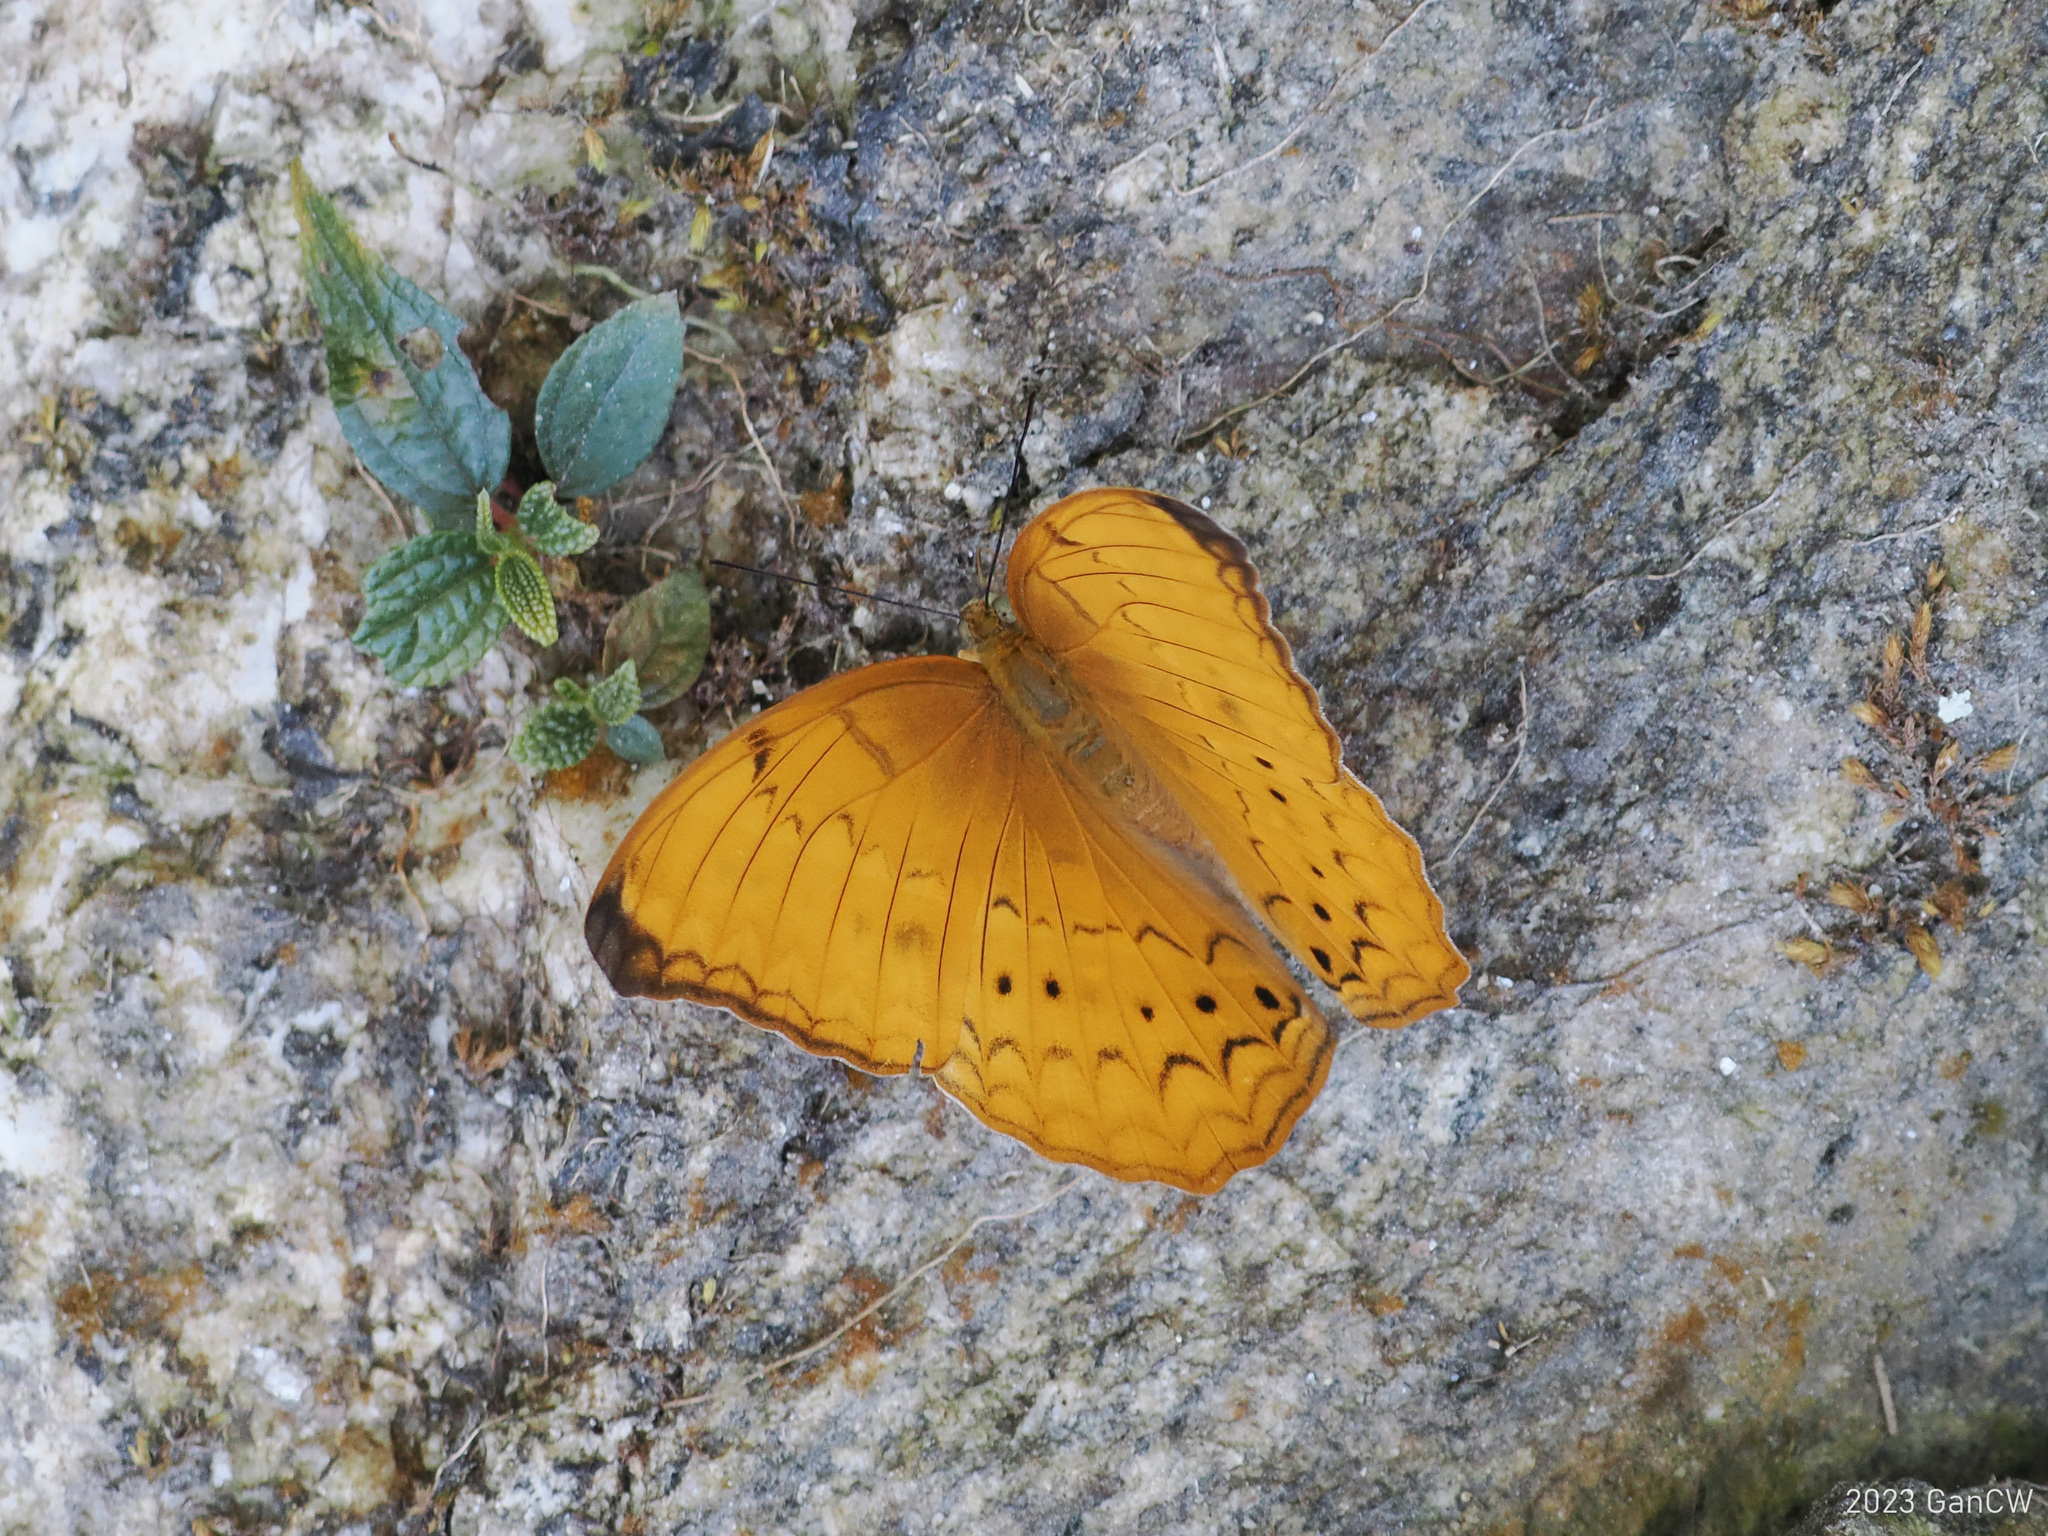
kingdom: Animalia
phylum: Arthropoda
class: Insecta
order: Lepidoptera
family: Nymphalidae
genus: Cirrochroa
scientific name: Cirrochroa aoris
